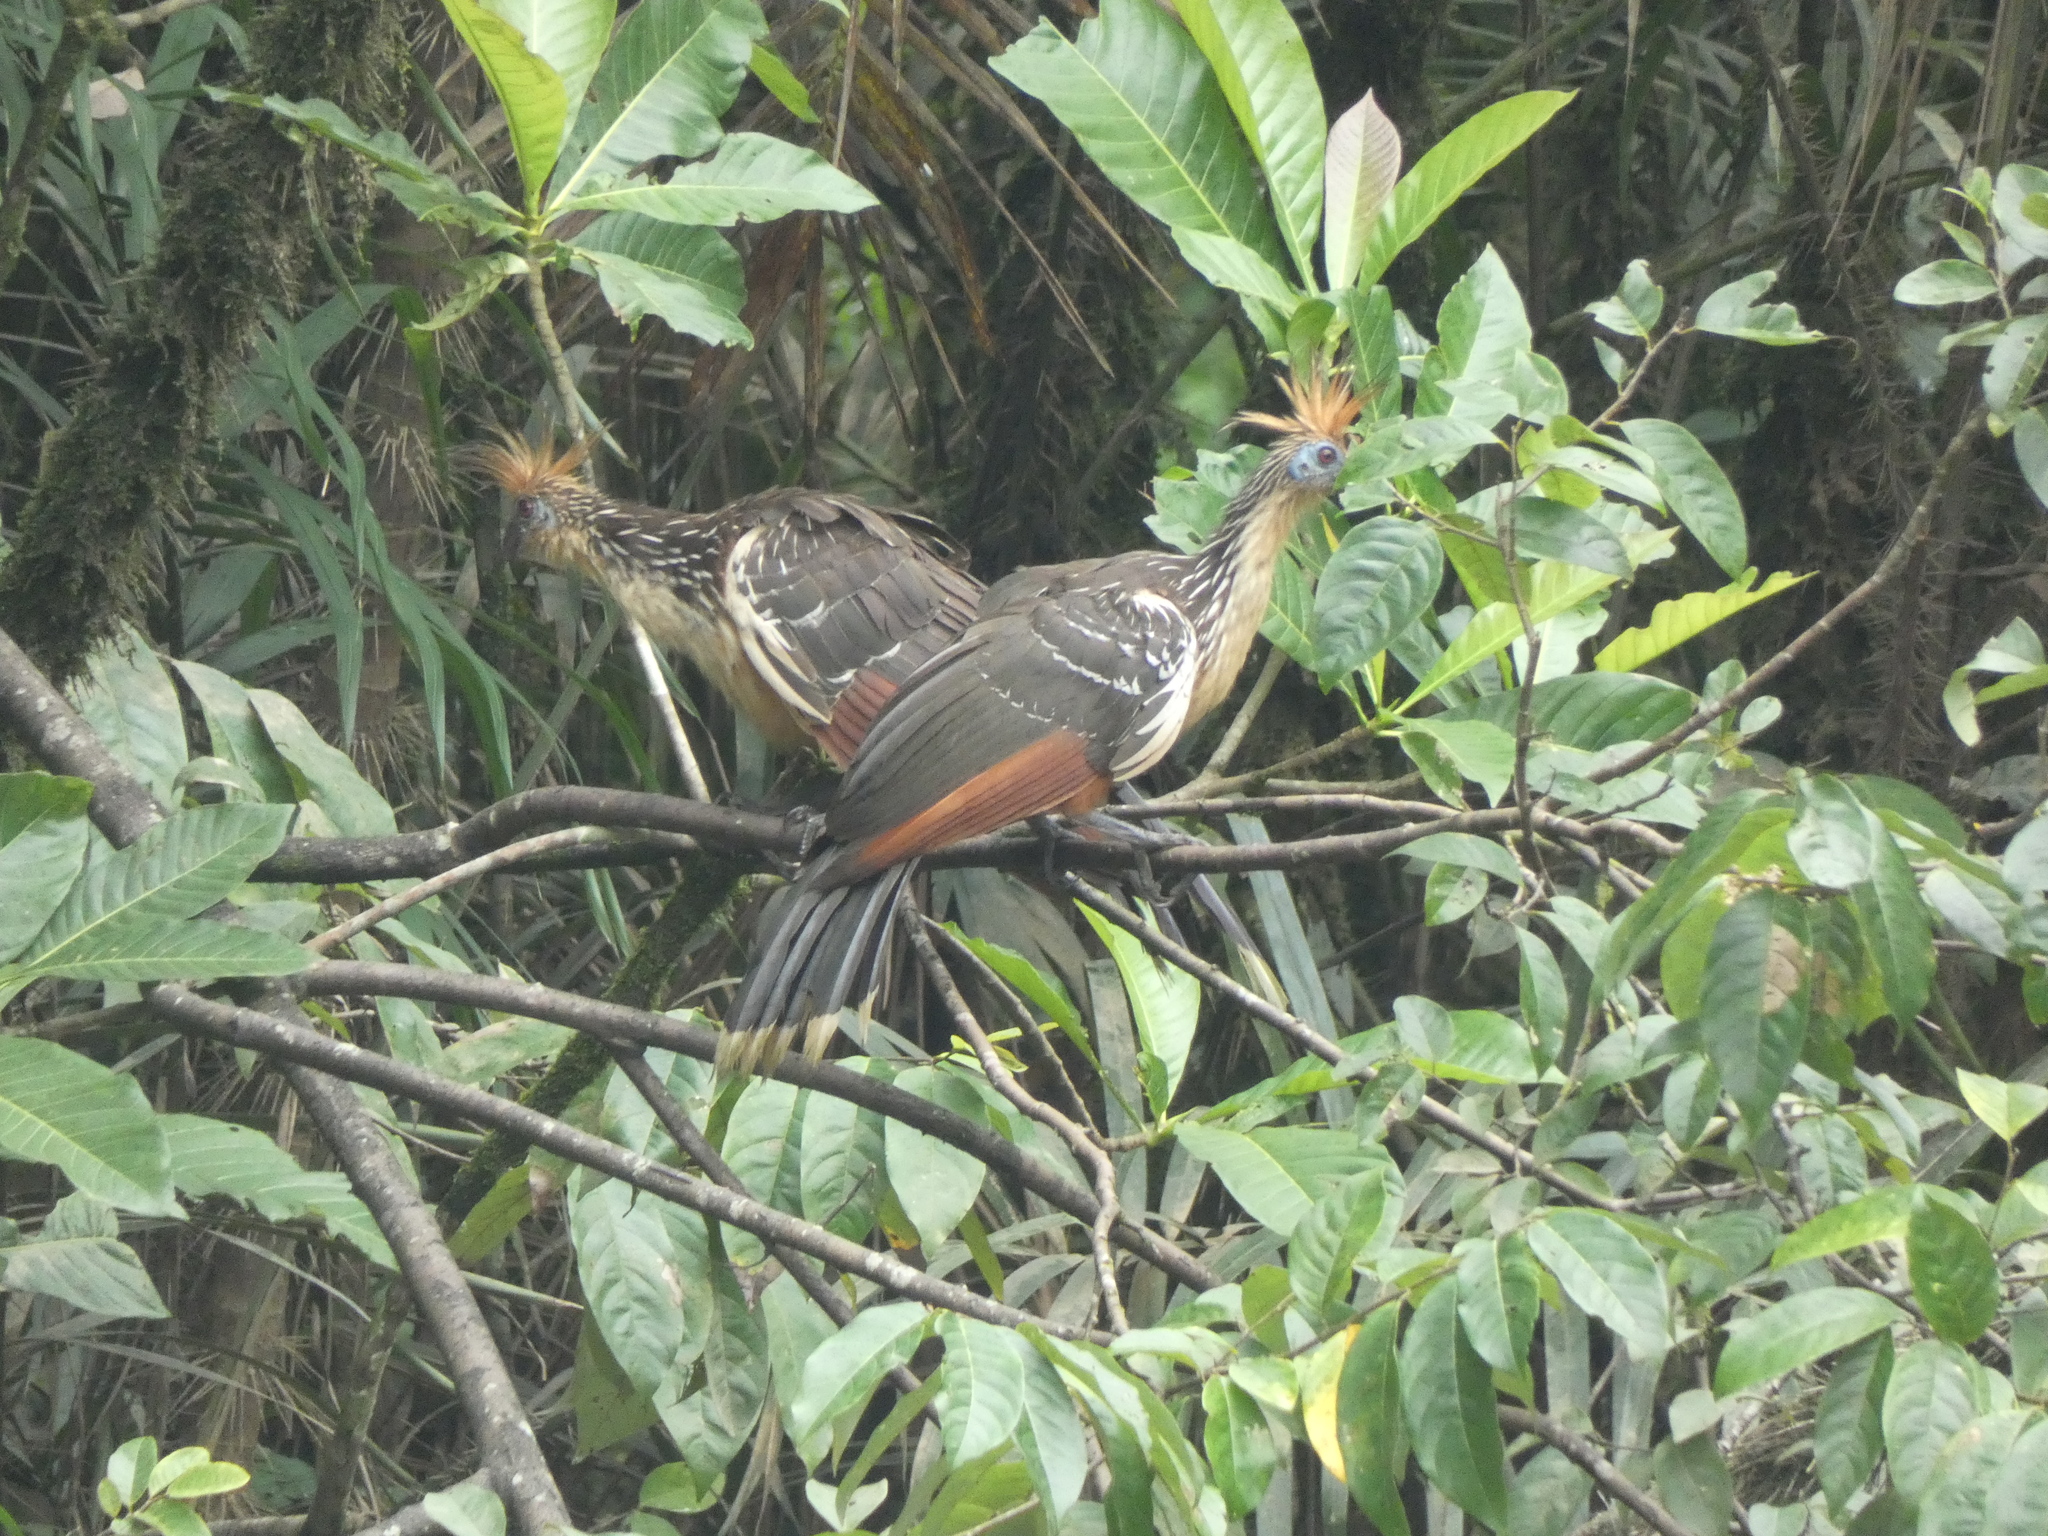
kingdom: Animalia
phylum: Chordata
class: Aves
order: Opisthocomiformes
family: Opisthocomidae
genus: Opisthocomus
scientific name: Opisthocomus hoazin
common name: Hoatzin
